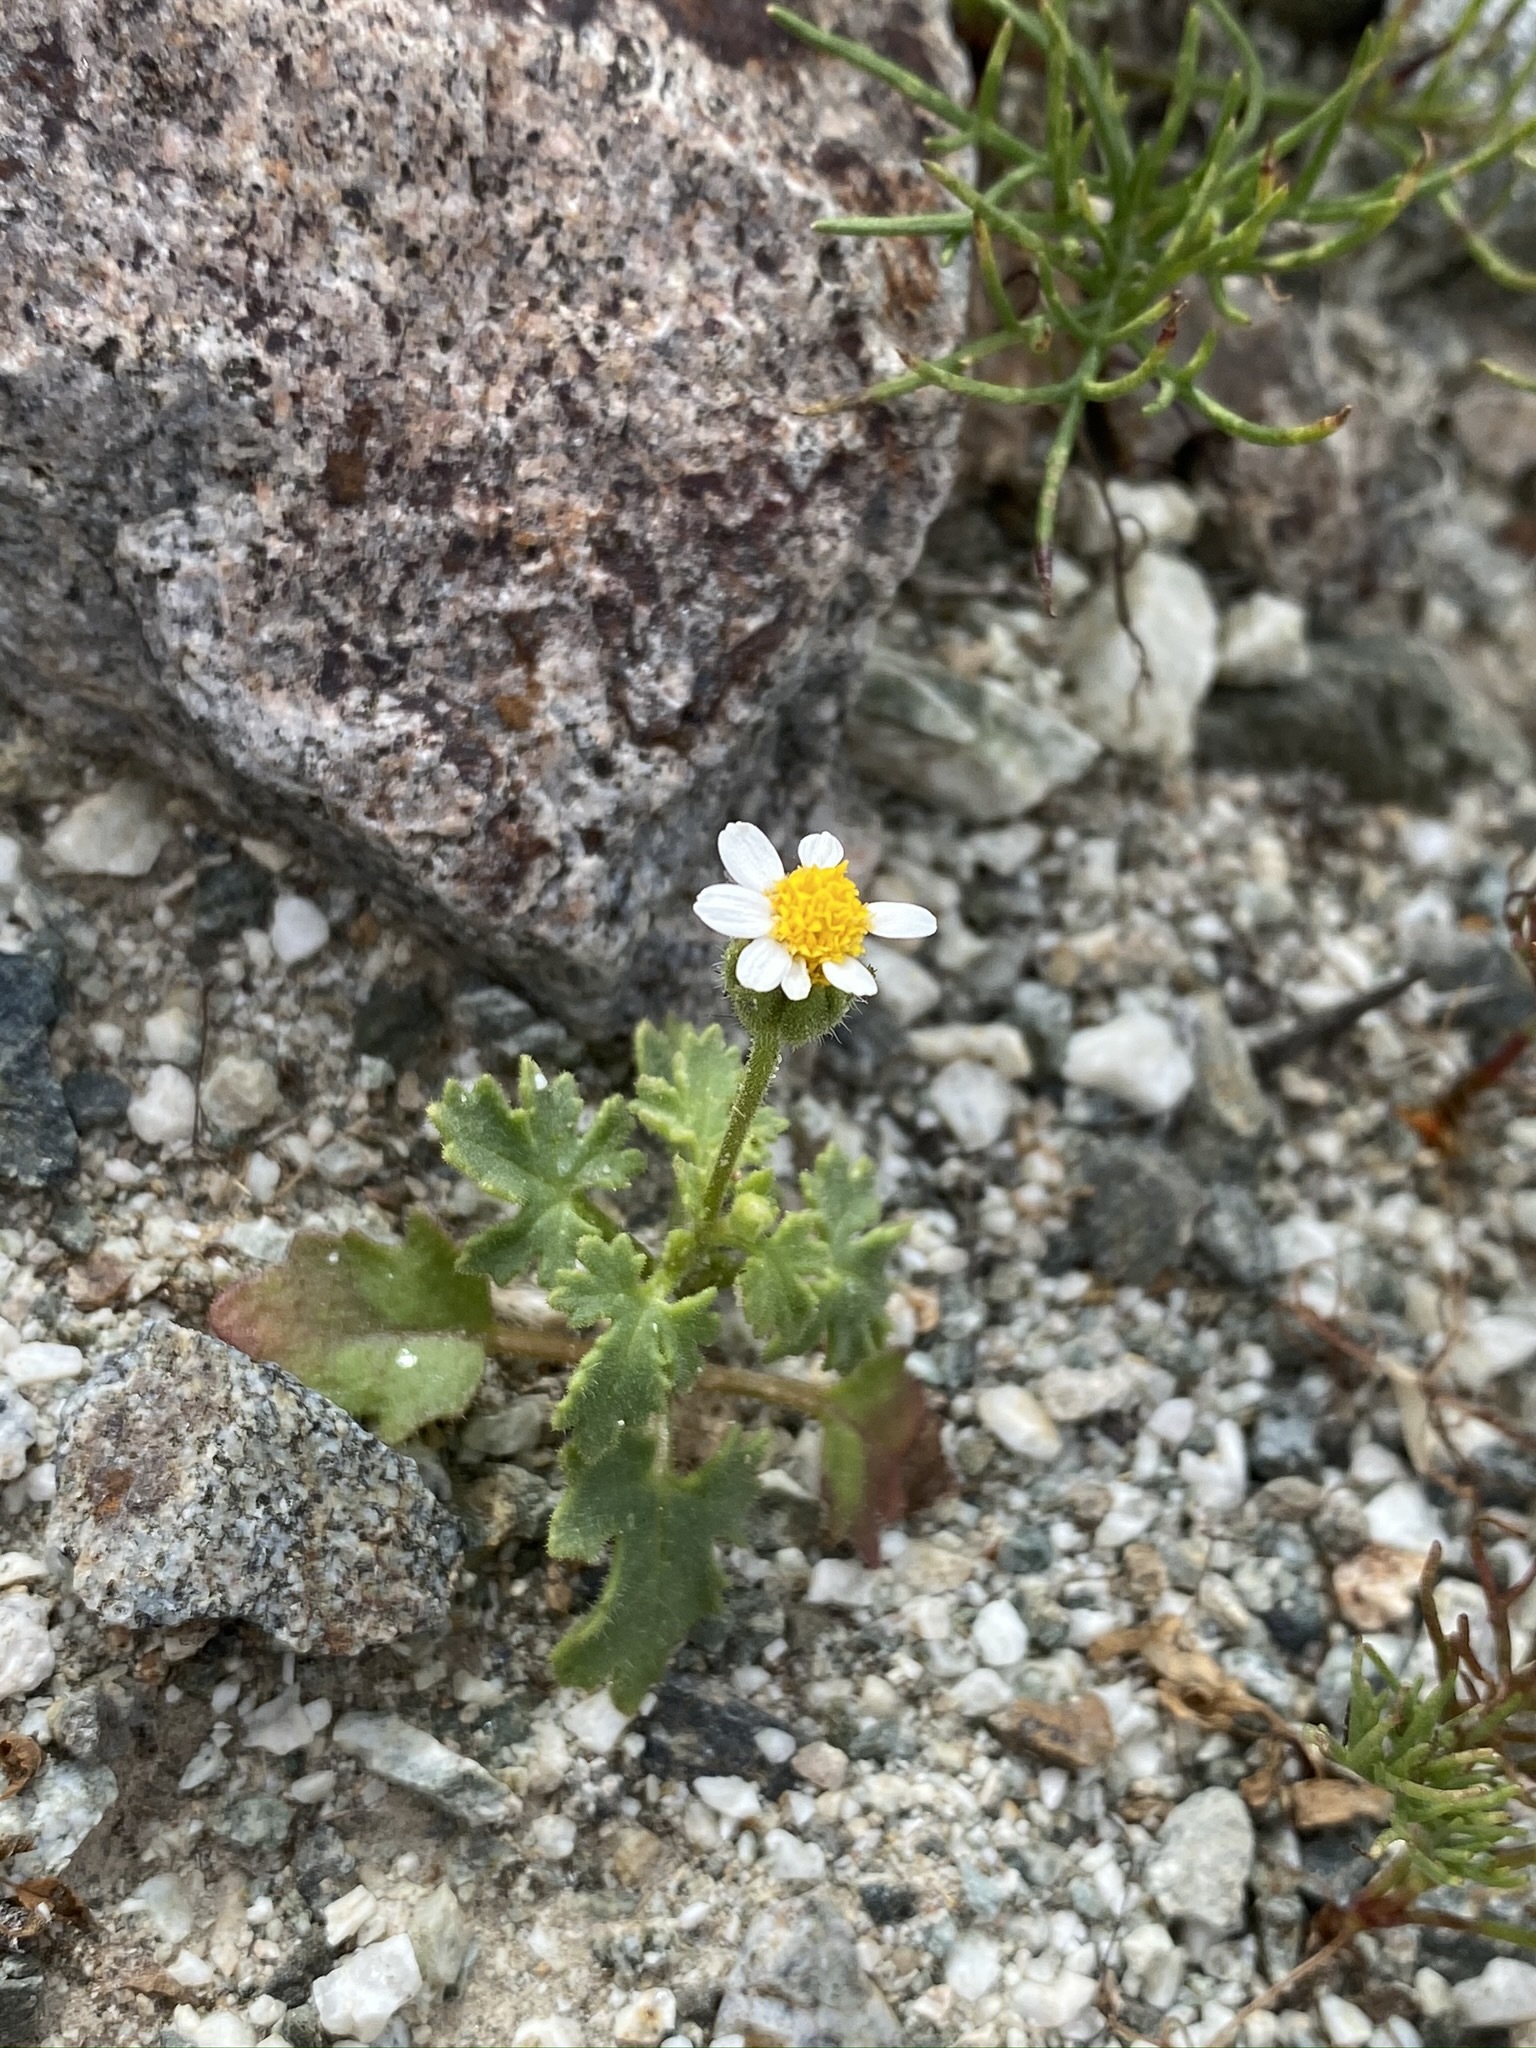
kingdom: Plantae
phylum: Tracheophyta
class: Magnoliopsida
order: Asterales
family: Asteraceae
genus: Laphamia
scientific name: Laphamia emoryi
